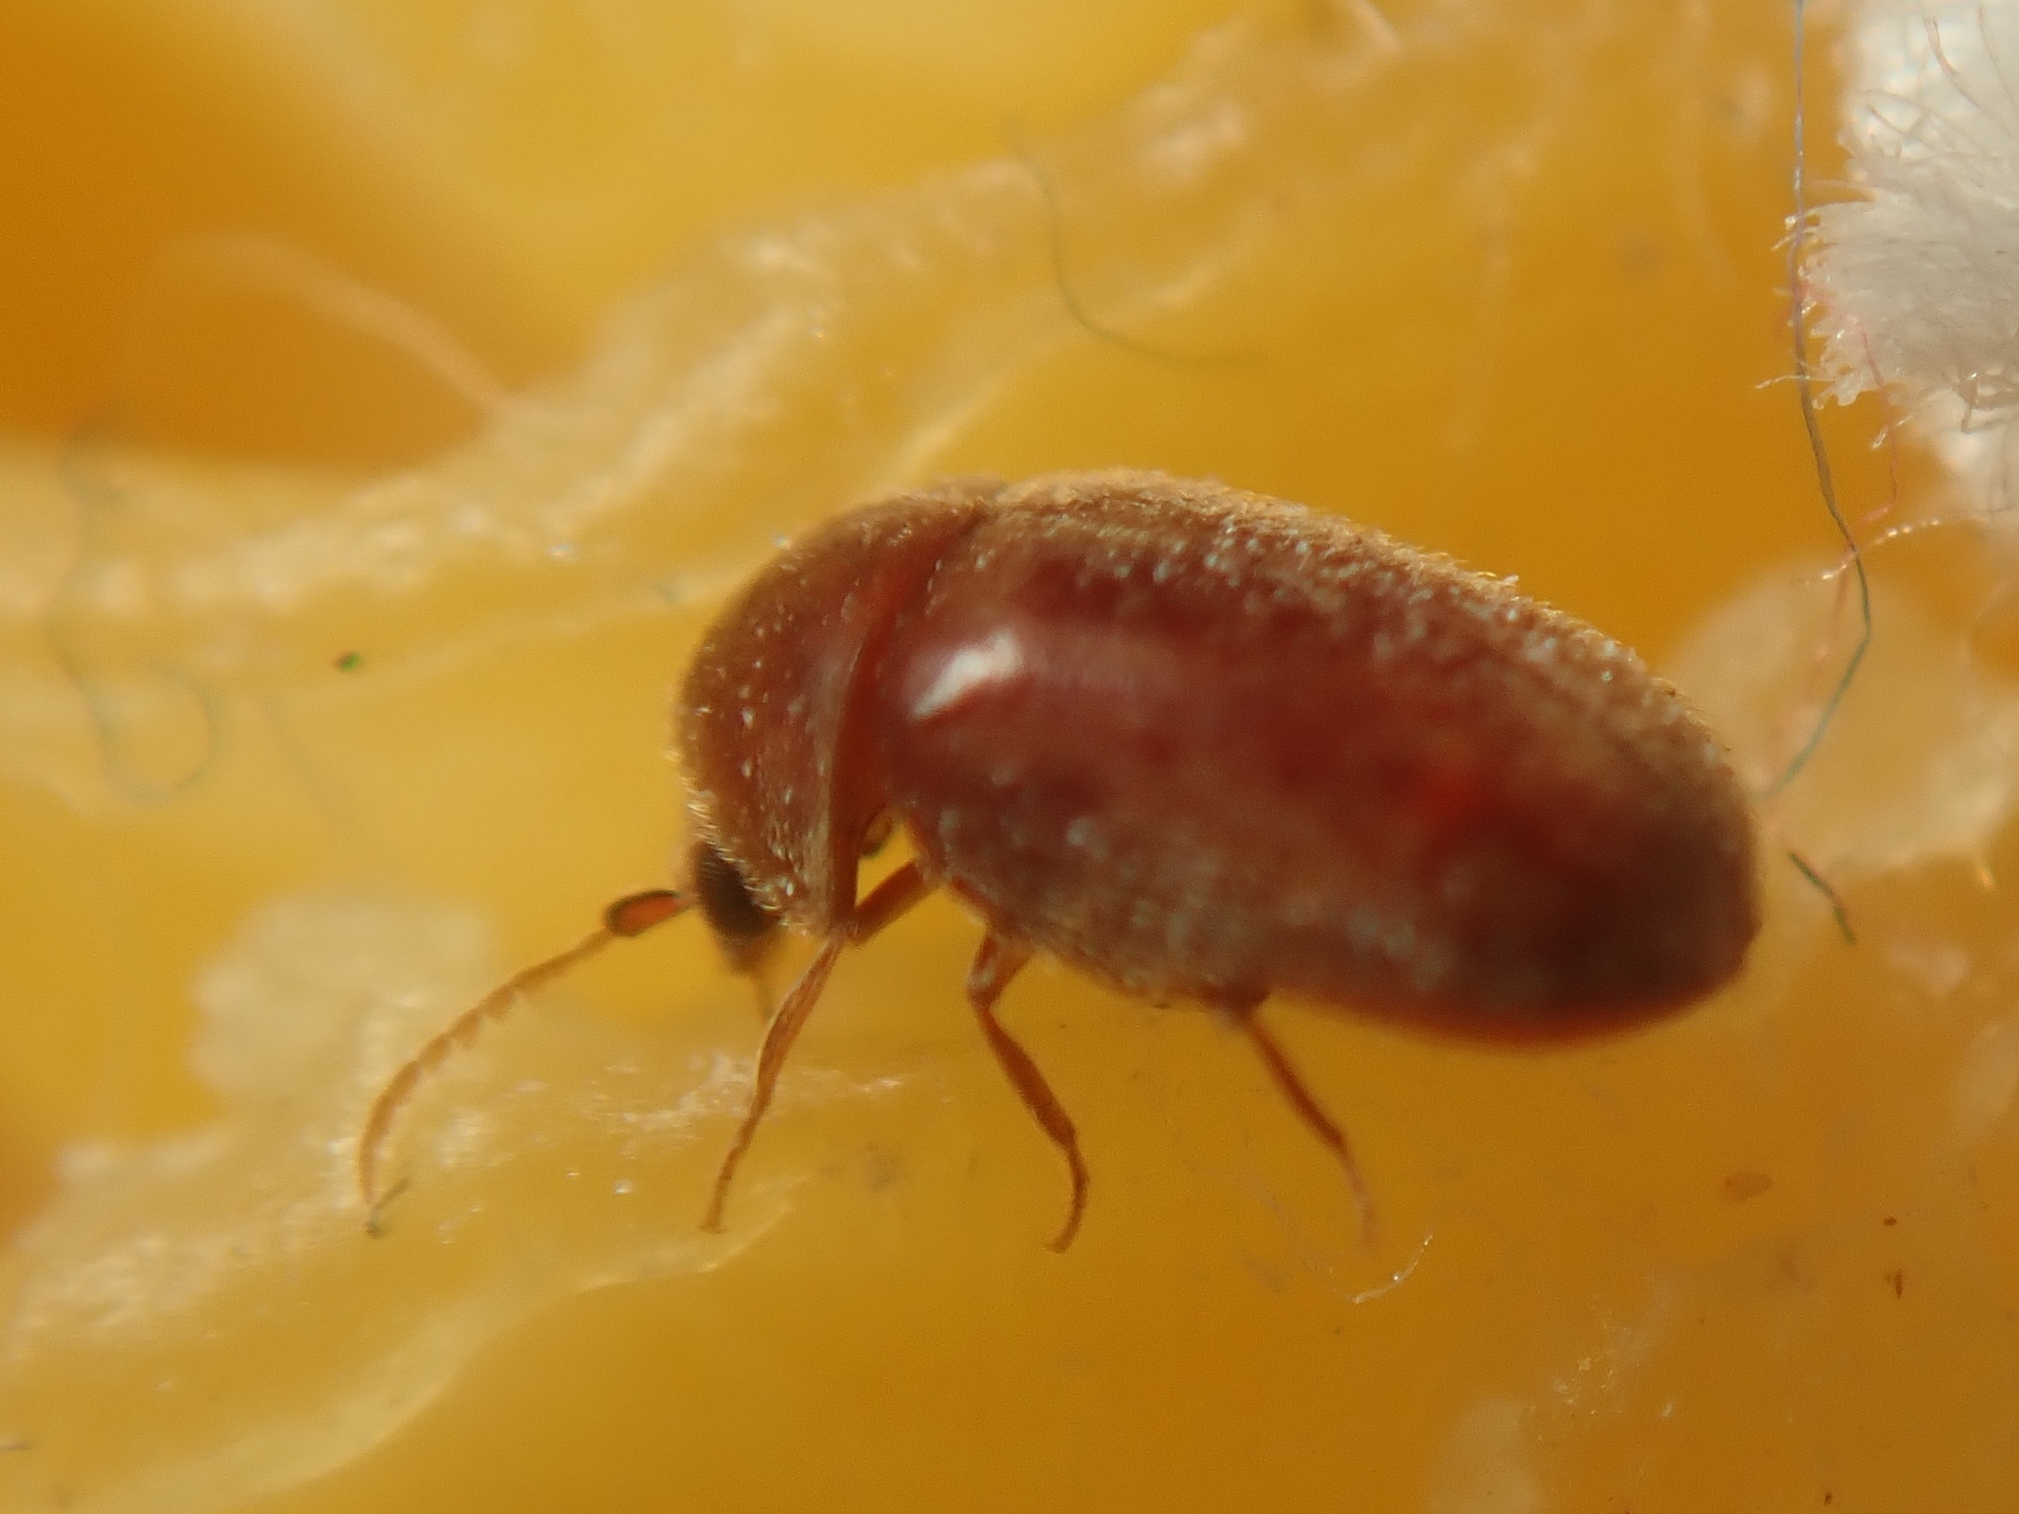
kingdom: Animalia
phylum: Arthropoda
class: Insecta
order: Coleoptera
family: Anobiidae
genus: Lasioderma
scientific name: Lasioderma serricorne
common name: Cigarette beetle
